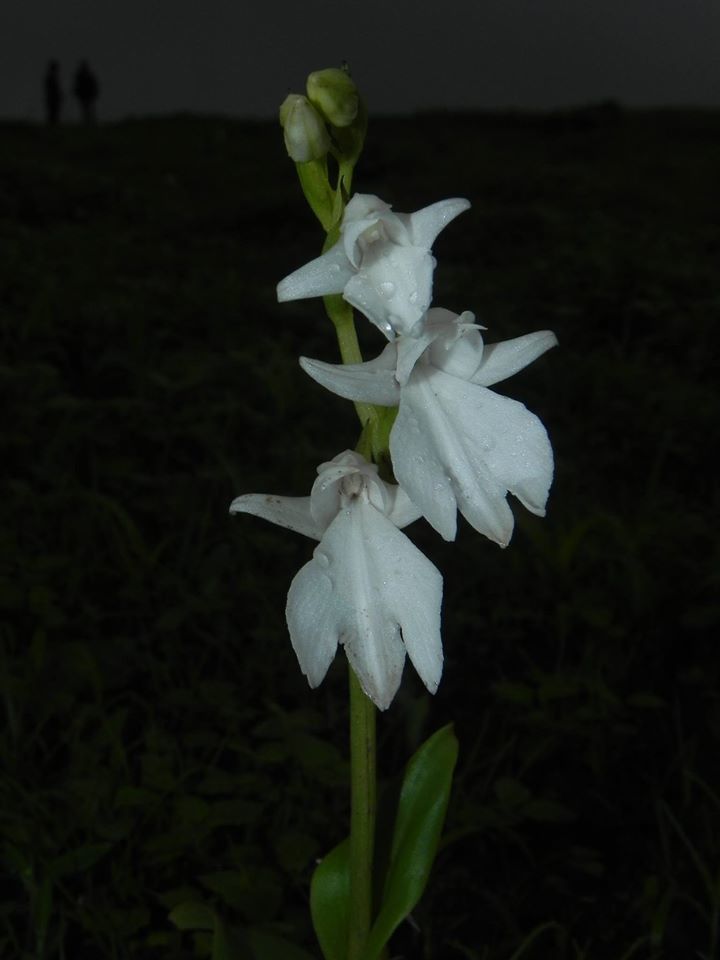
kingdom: Plantae
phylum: Tracheophyta
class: Liliopsida
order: Asparagales
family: Orchidaceae
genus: Habenaria
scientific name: Habenaria suaveolens
